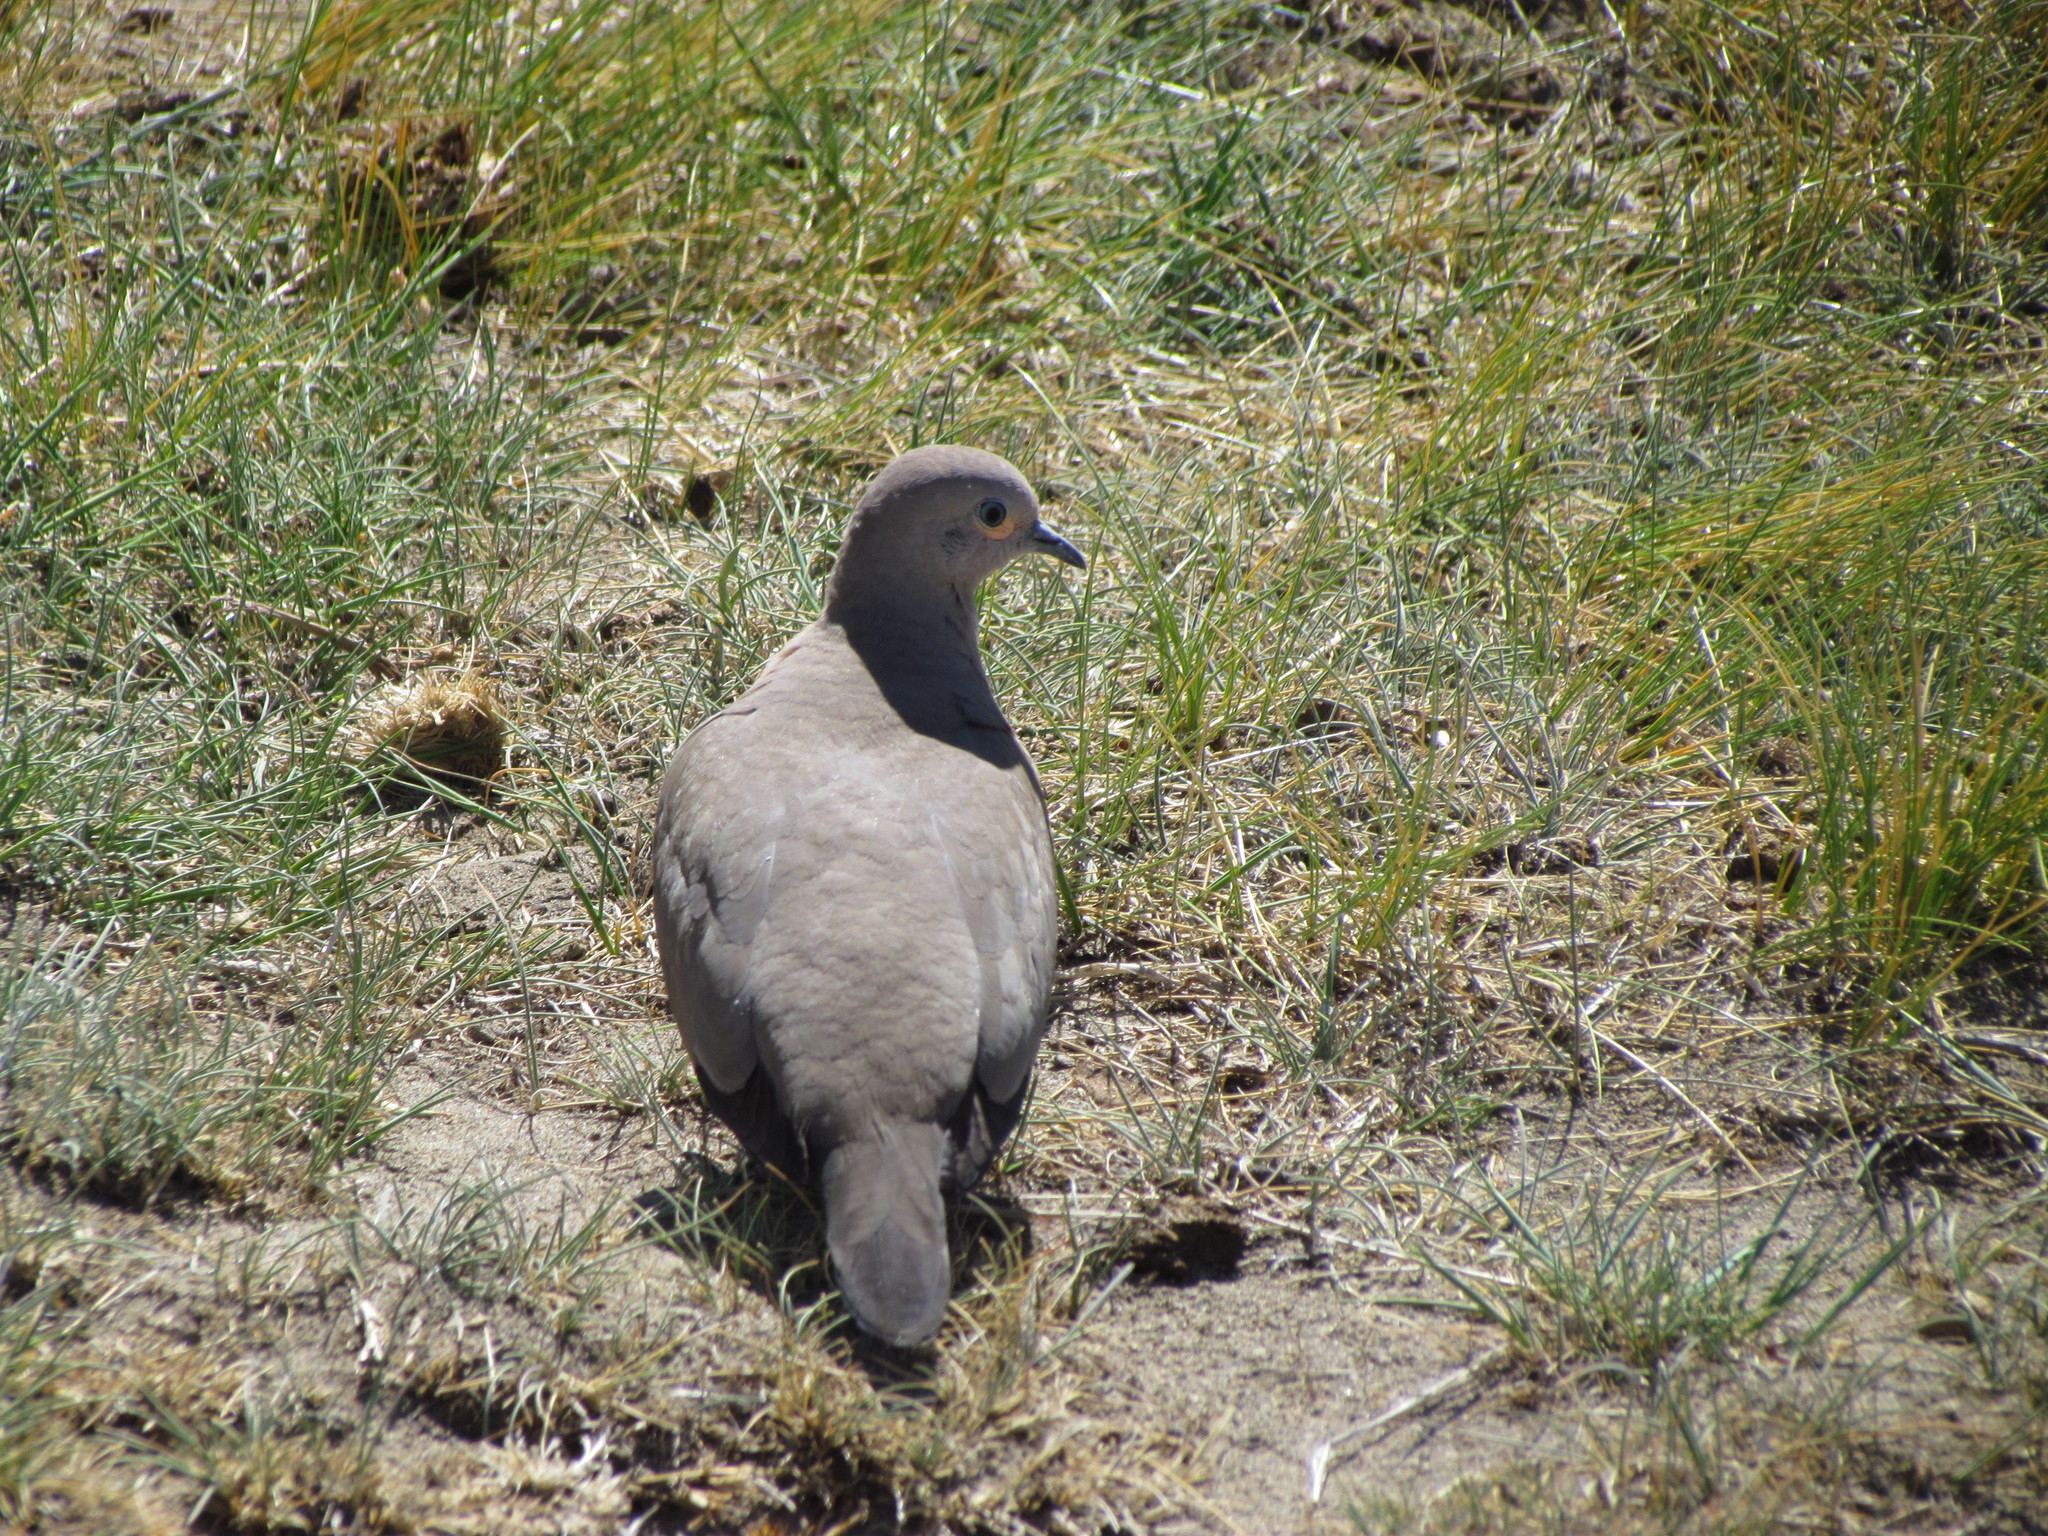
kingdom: Animalia
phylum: Chordata
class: Aves
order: Columbiformes
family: Columbidae
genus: Metriopelia
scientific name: Metriopelia melanoptera
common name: Black-winged ground dove
